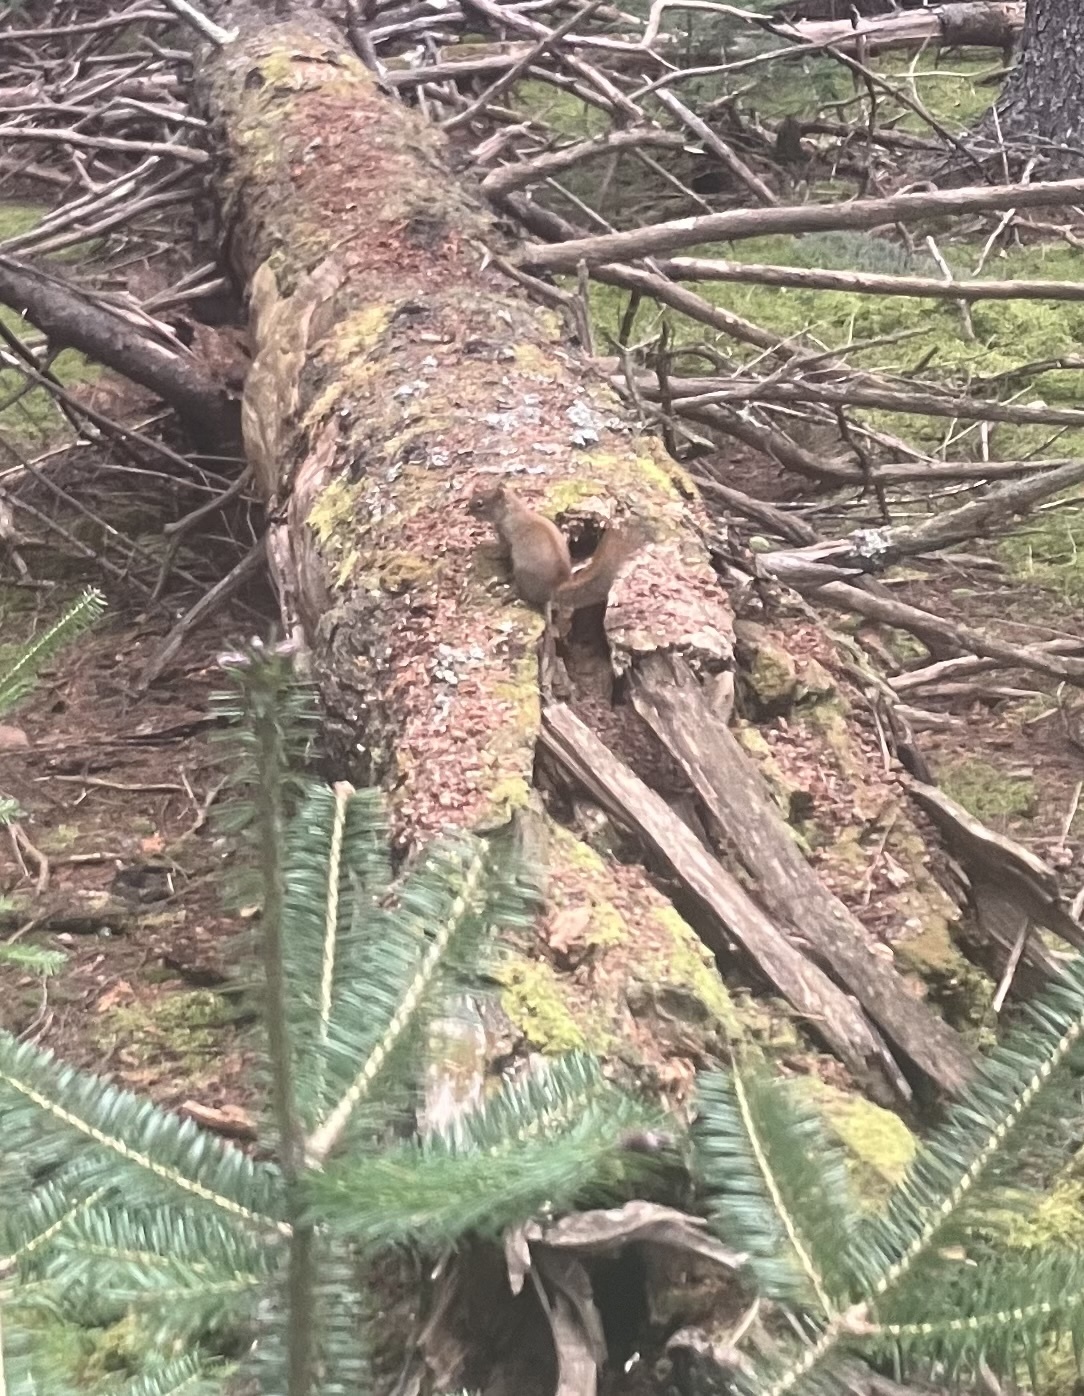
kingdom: Animalia
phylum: Chordata
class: Mammalia
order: Rodentia
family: Sciuridae
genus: Tamiasciurus
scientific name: Tamiasciurus hudsonicus
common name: Red squirrel
